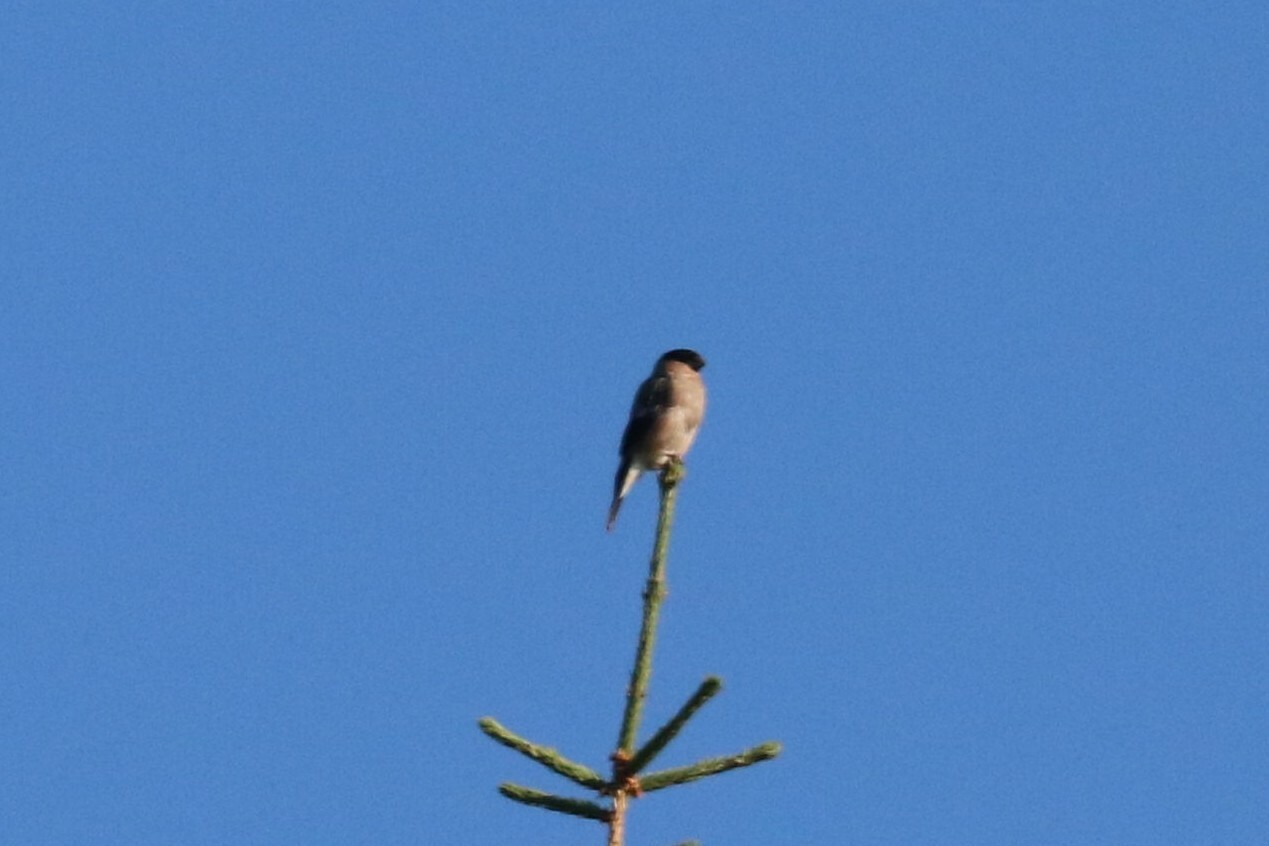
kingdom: Animalia
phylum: Chordata
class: Aves
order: Passeriformes
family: Fringillidae
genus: Pyrrhula
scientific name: Pyrrhula pyrrhula
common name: Eurasian bullfinch
